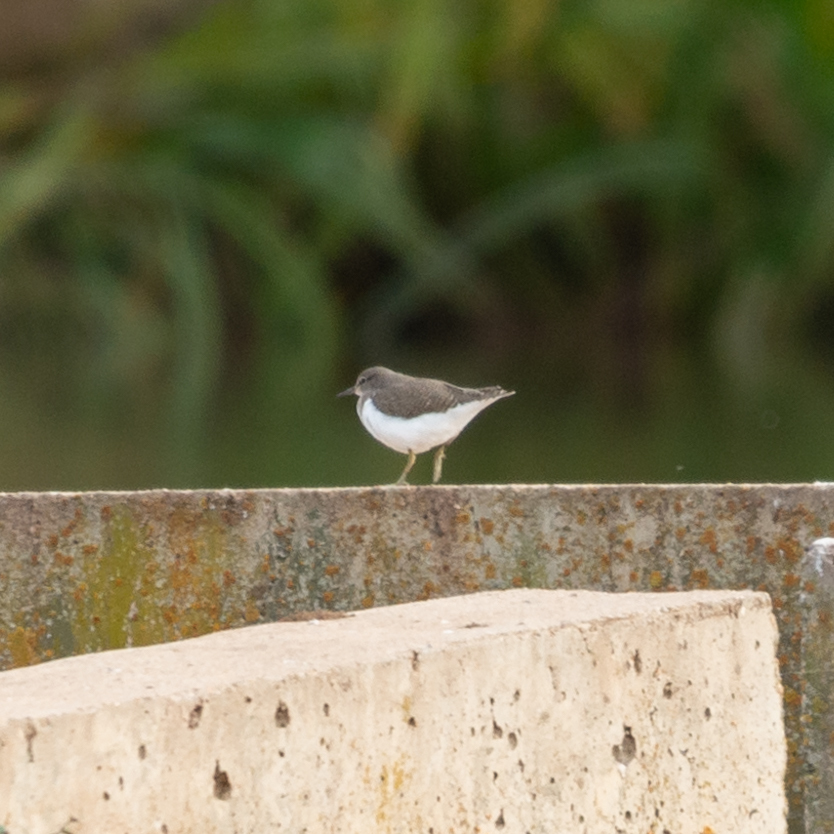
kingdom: Animalia
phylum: Chordata
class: Aves
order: Charadriiformes
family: Scolopacidae
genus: Actitis
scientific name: Actitis hypoleucos
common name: Common sandpiper
